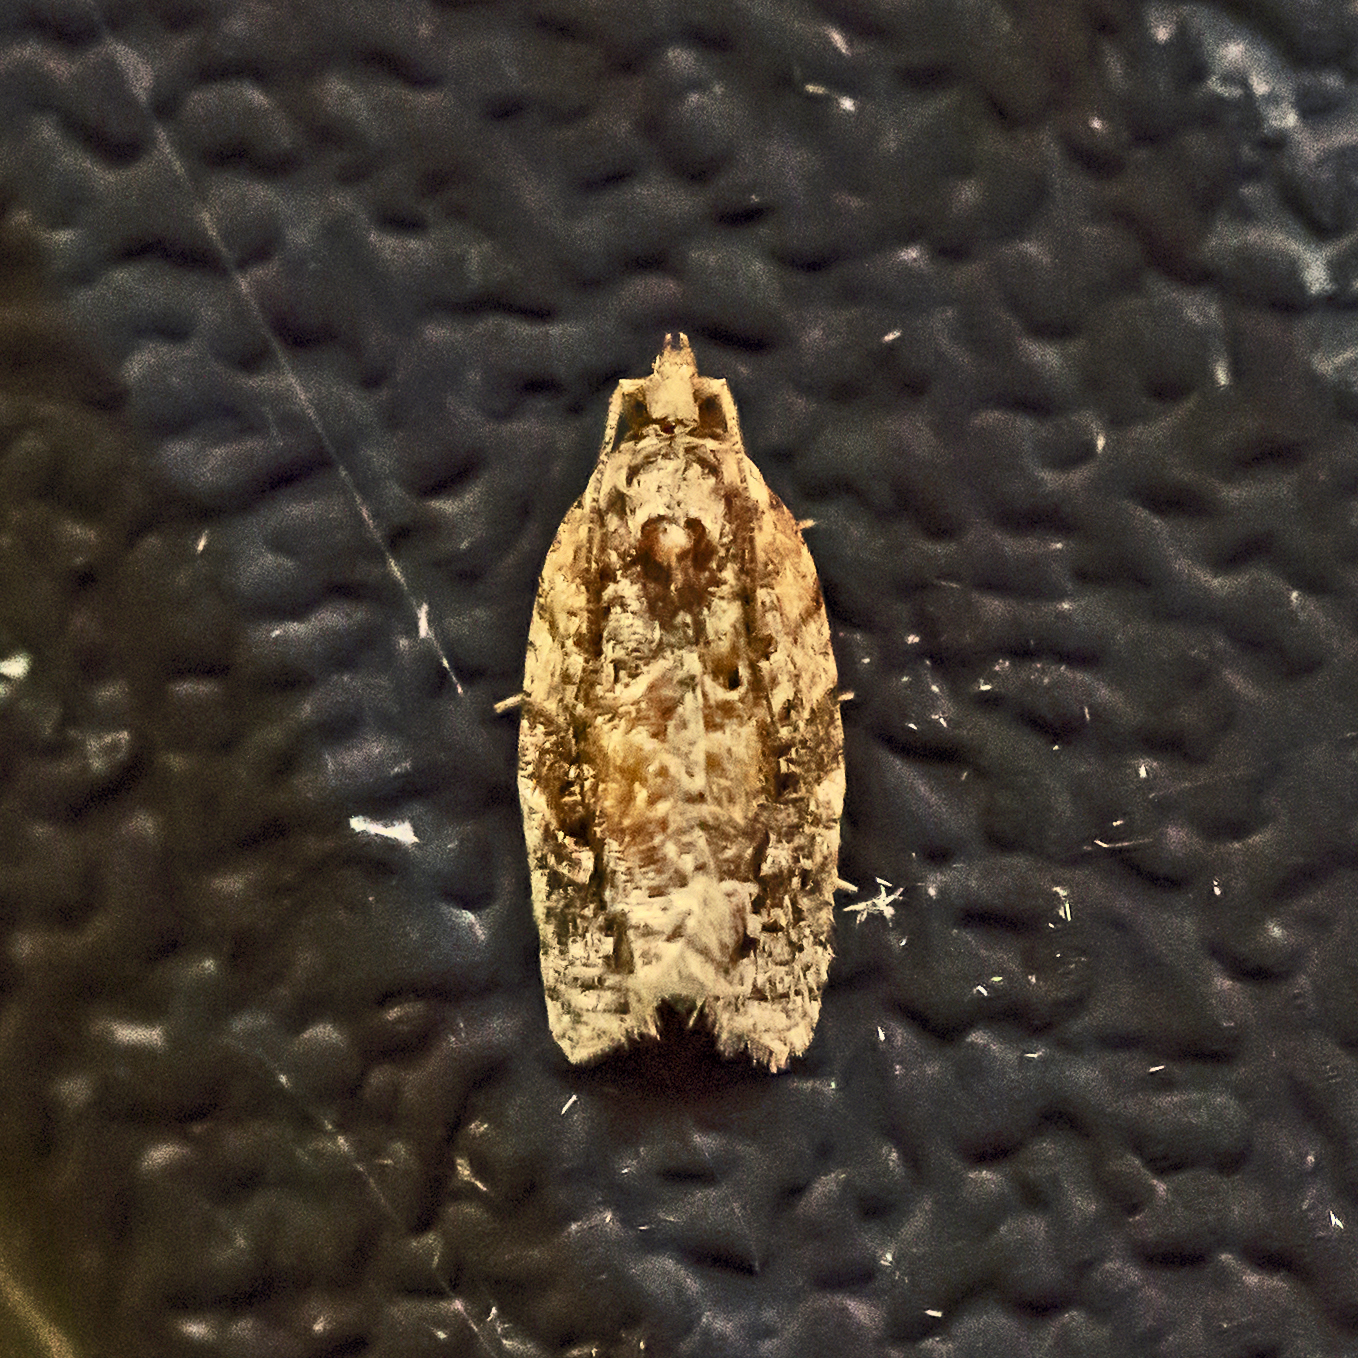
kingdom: Animalia
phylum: Arthropoda
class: Insecta
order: Lepidoptera
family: Tortricidae
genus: Argyrotaenia
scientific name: Argyrotaenia velutinana
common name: Red-banded leafroller moth
